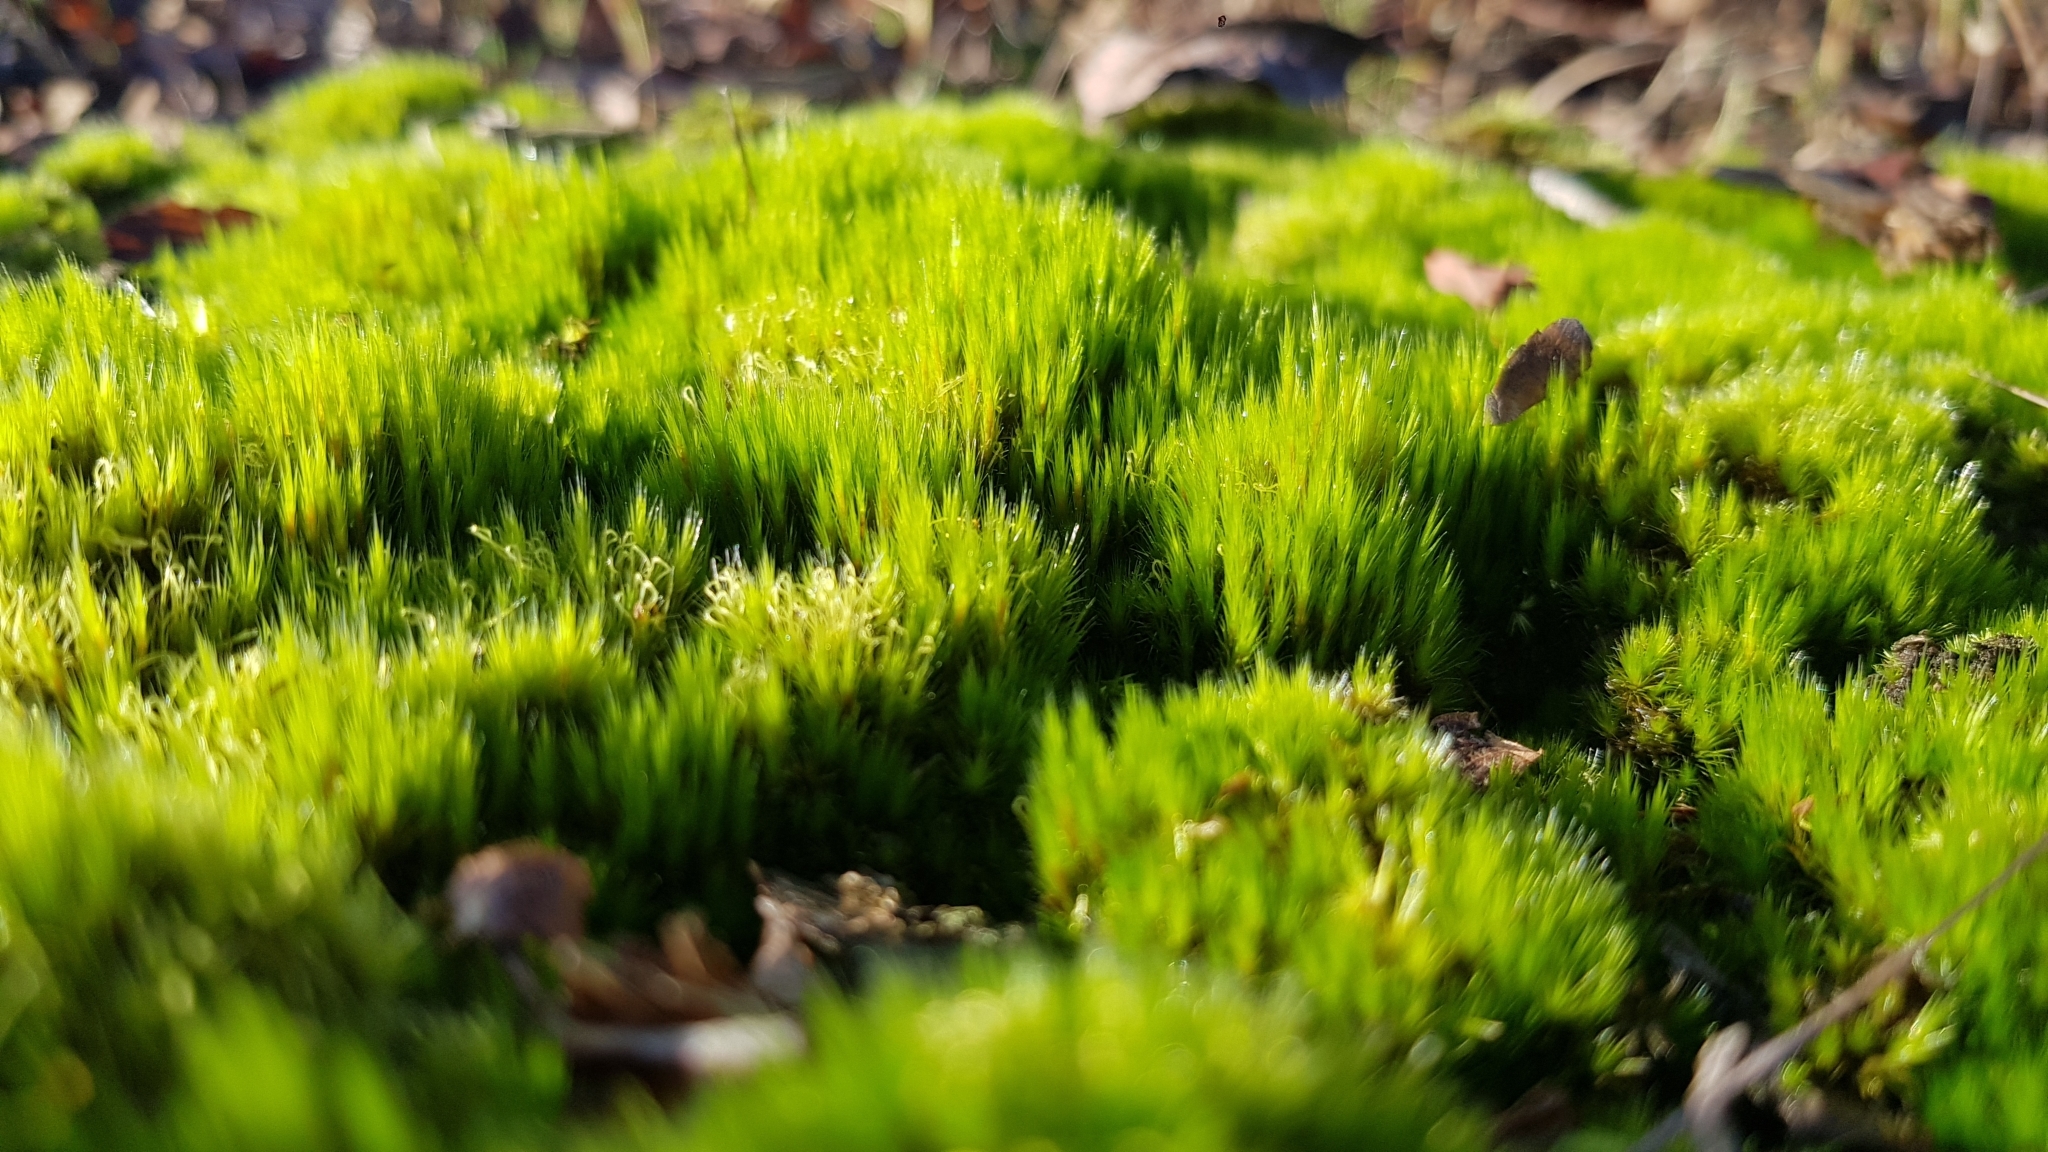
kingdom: Plantae
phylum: Bryophyta
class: Bryopsida
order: Dicranales
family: Leucobryaceae
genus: Campylopus
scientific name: Campylopus introflexus
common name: Heath star moss
